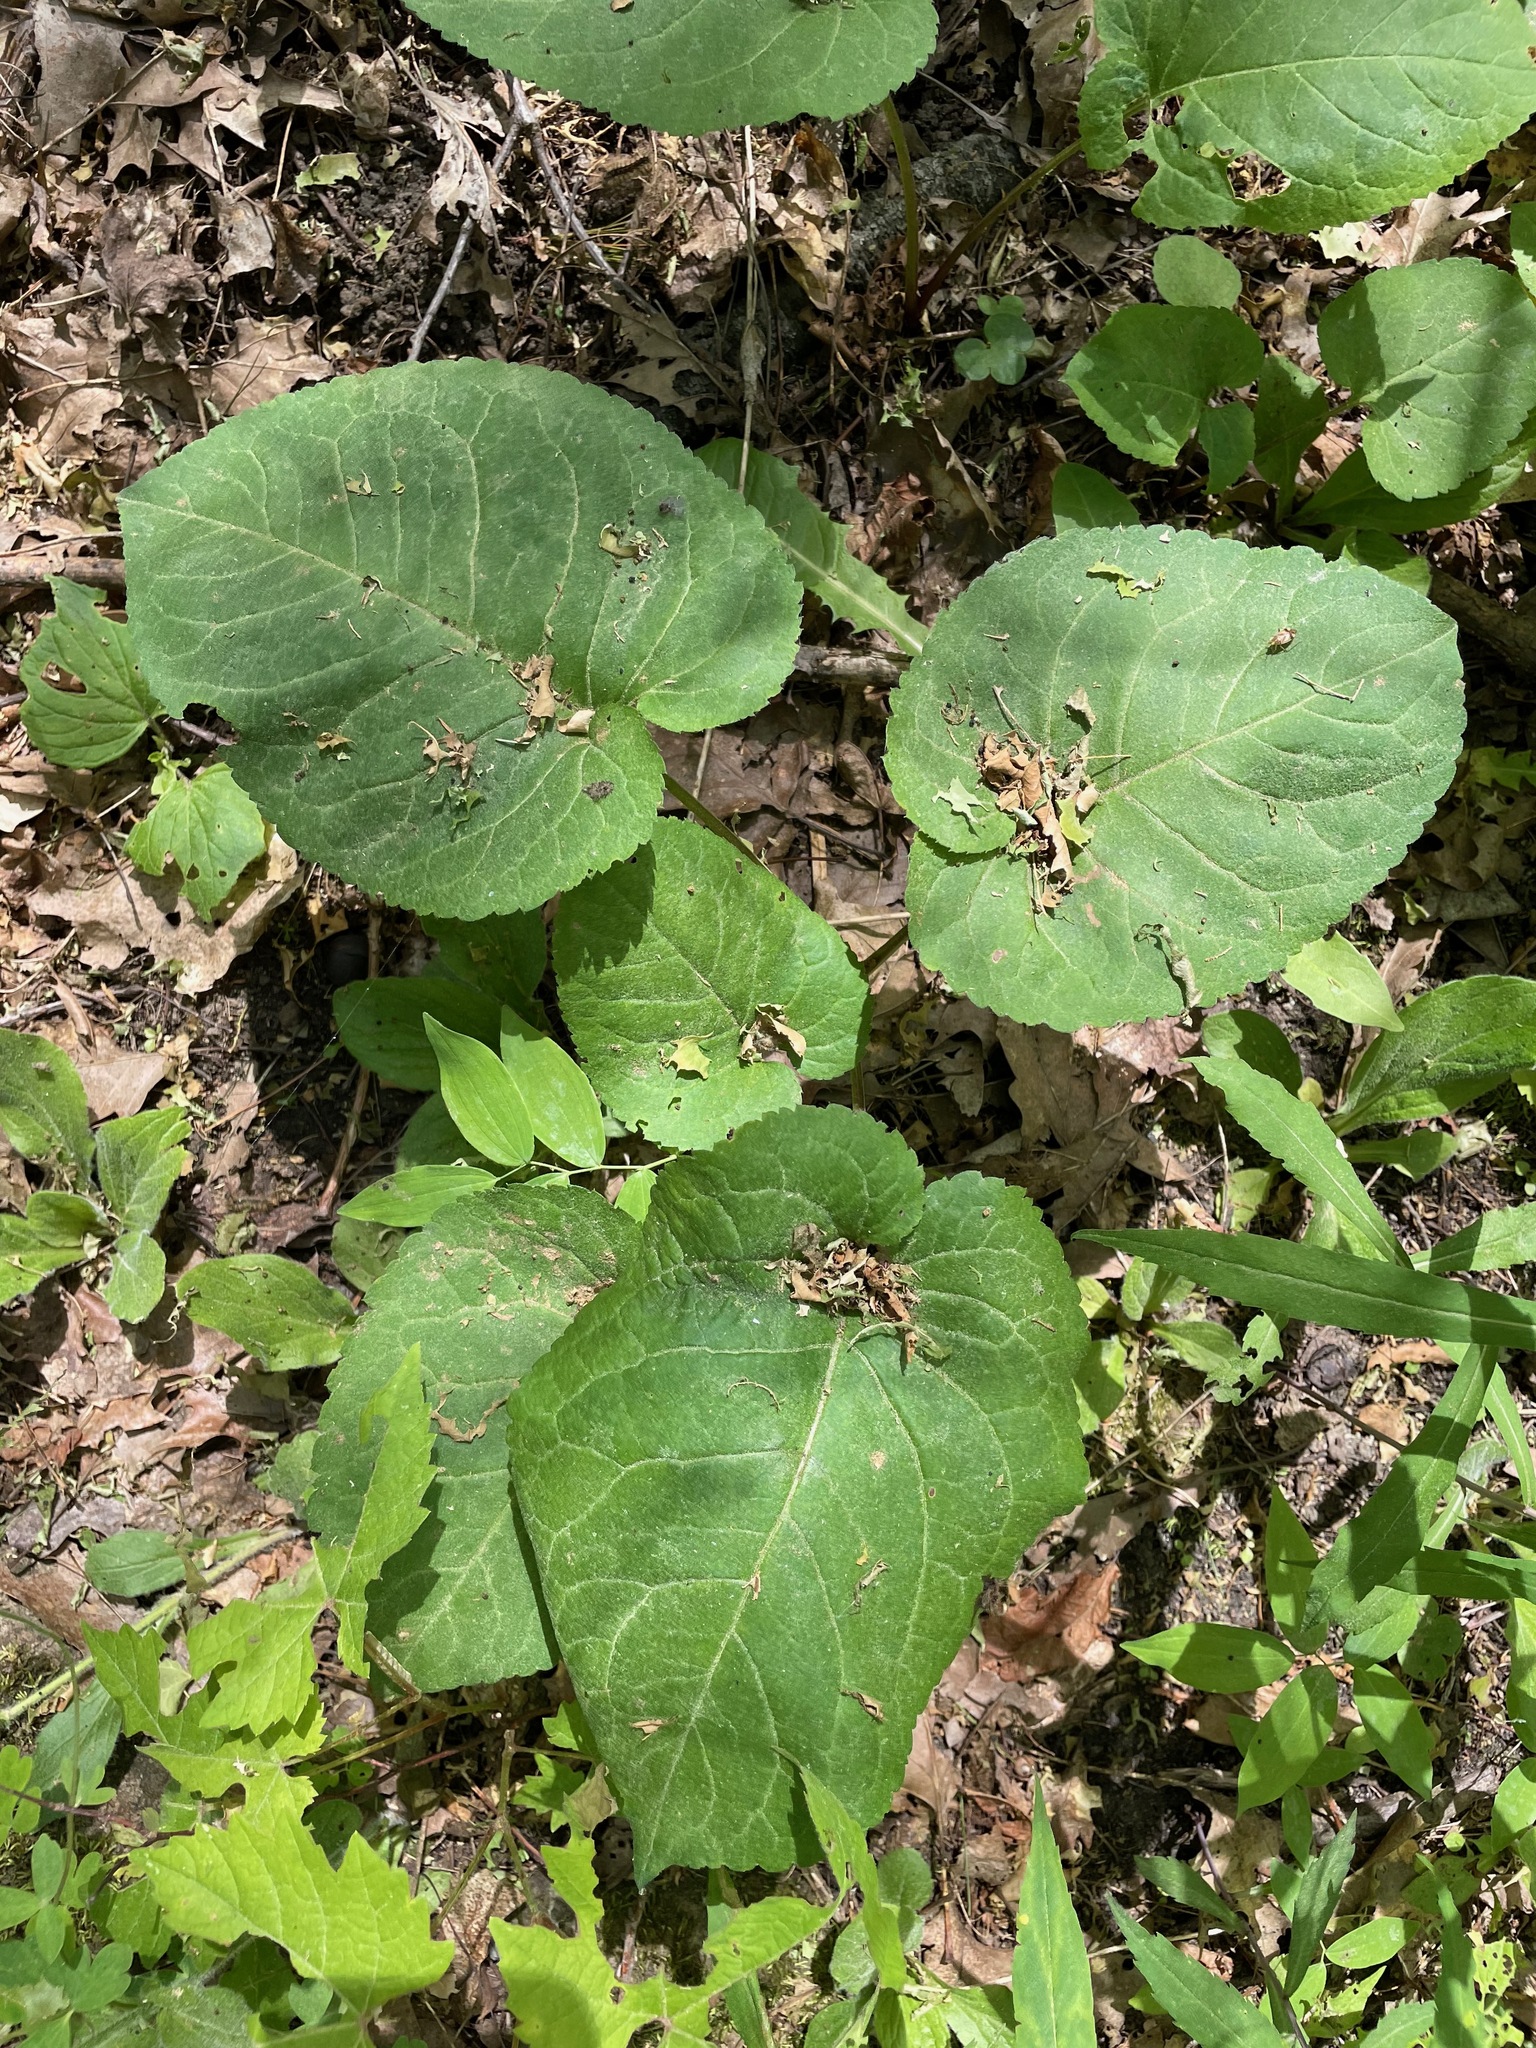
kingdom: Plantae
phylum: Tracheophyta
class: Magnoliopsida
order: Asterales
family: Asteraceae
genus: Eurybia
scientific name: Eurybia macrophylla
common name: Big-leaved aster
